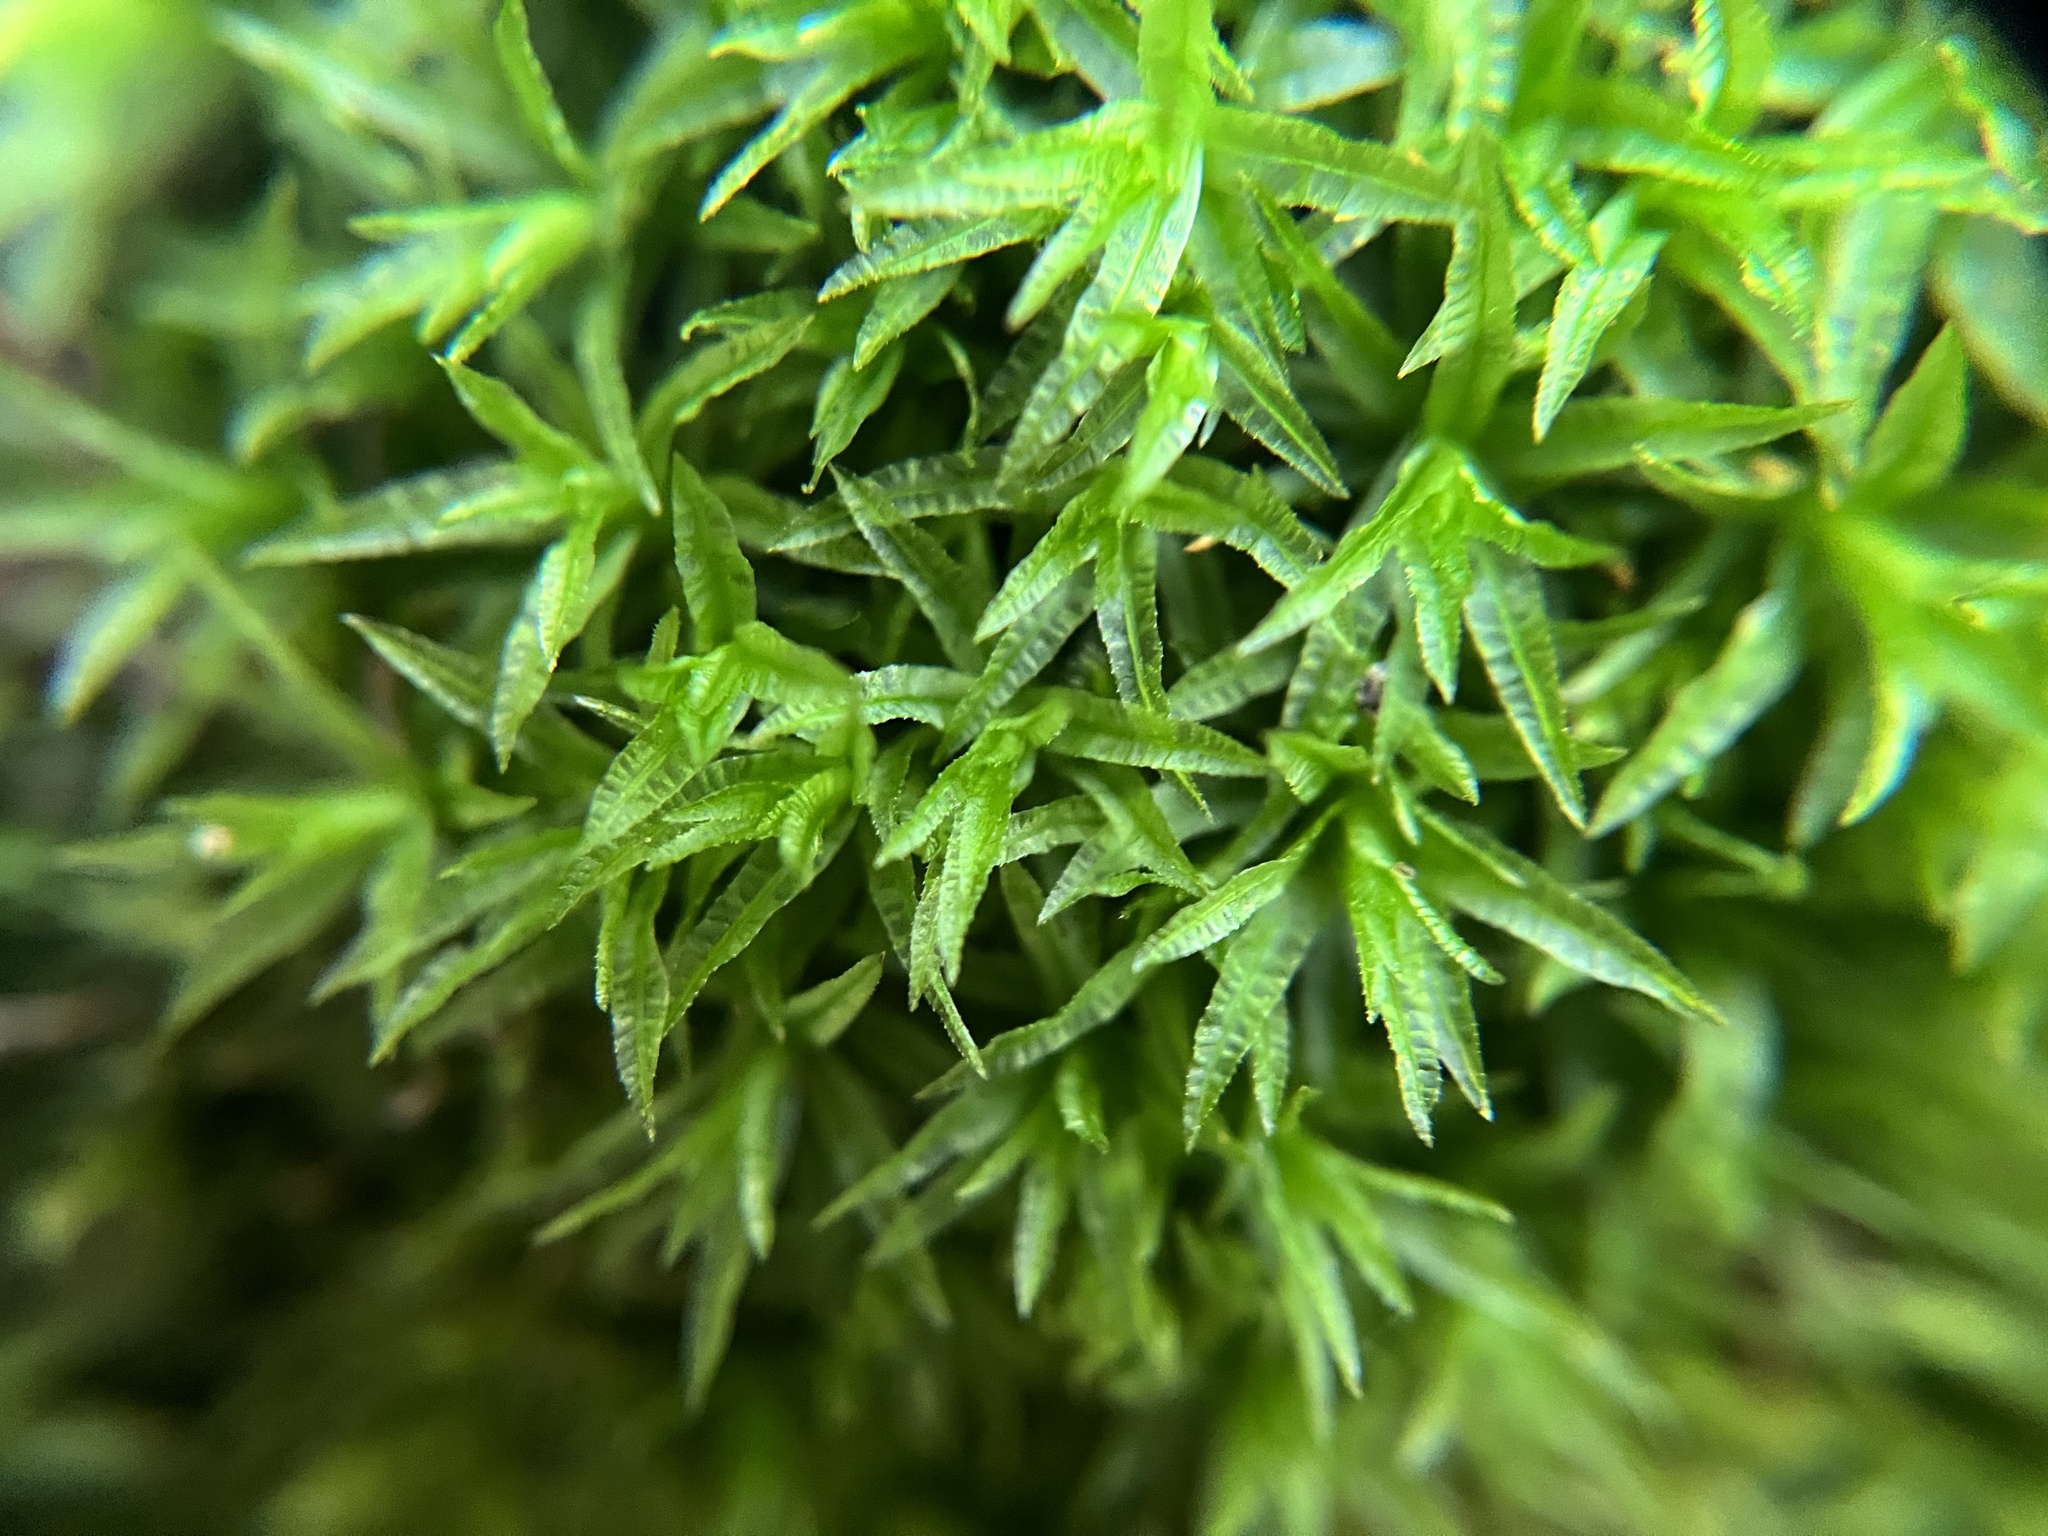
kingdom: Plantae
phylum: Bryophyta
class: Polytrichopsida
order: Polytrichales
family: Polytrichaceae
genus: Atrichum
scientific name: Atrichum undulatum
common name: Common smoothcap
